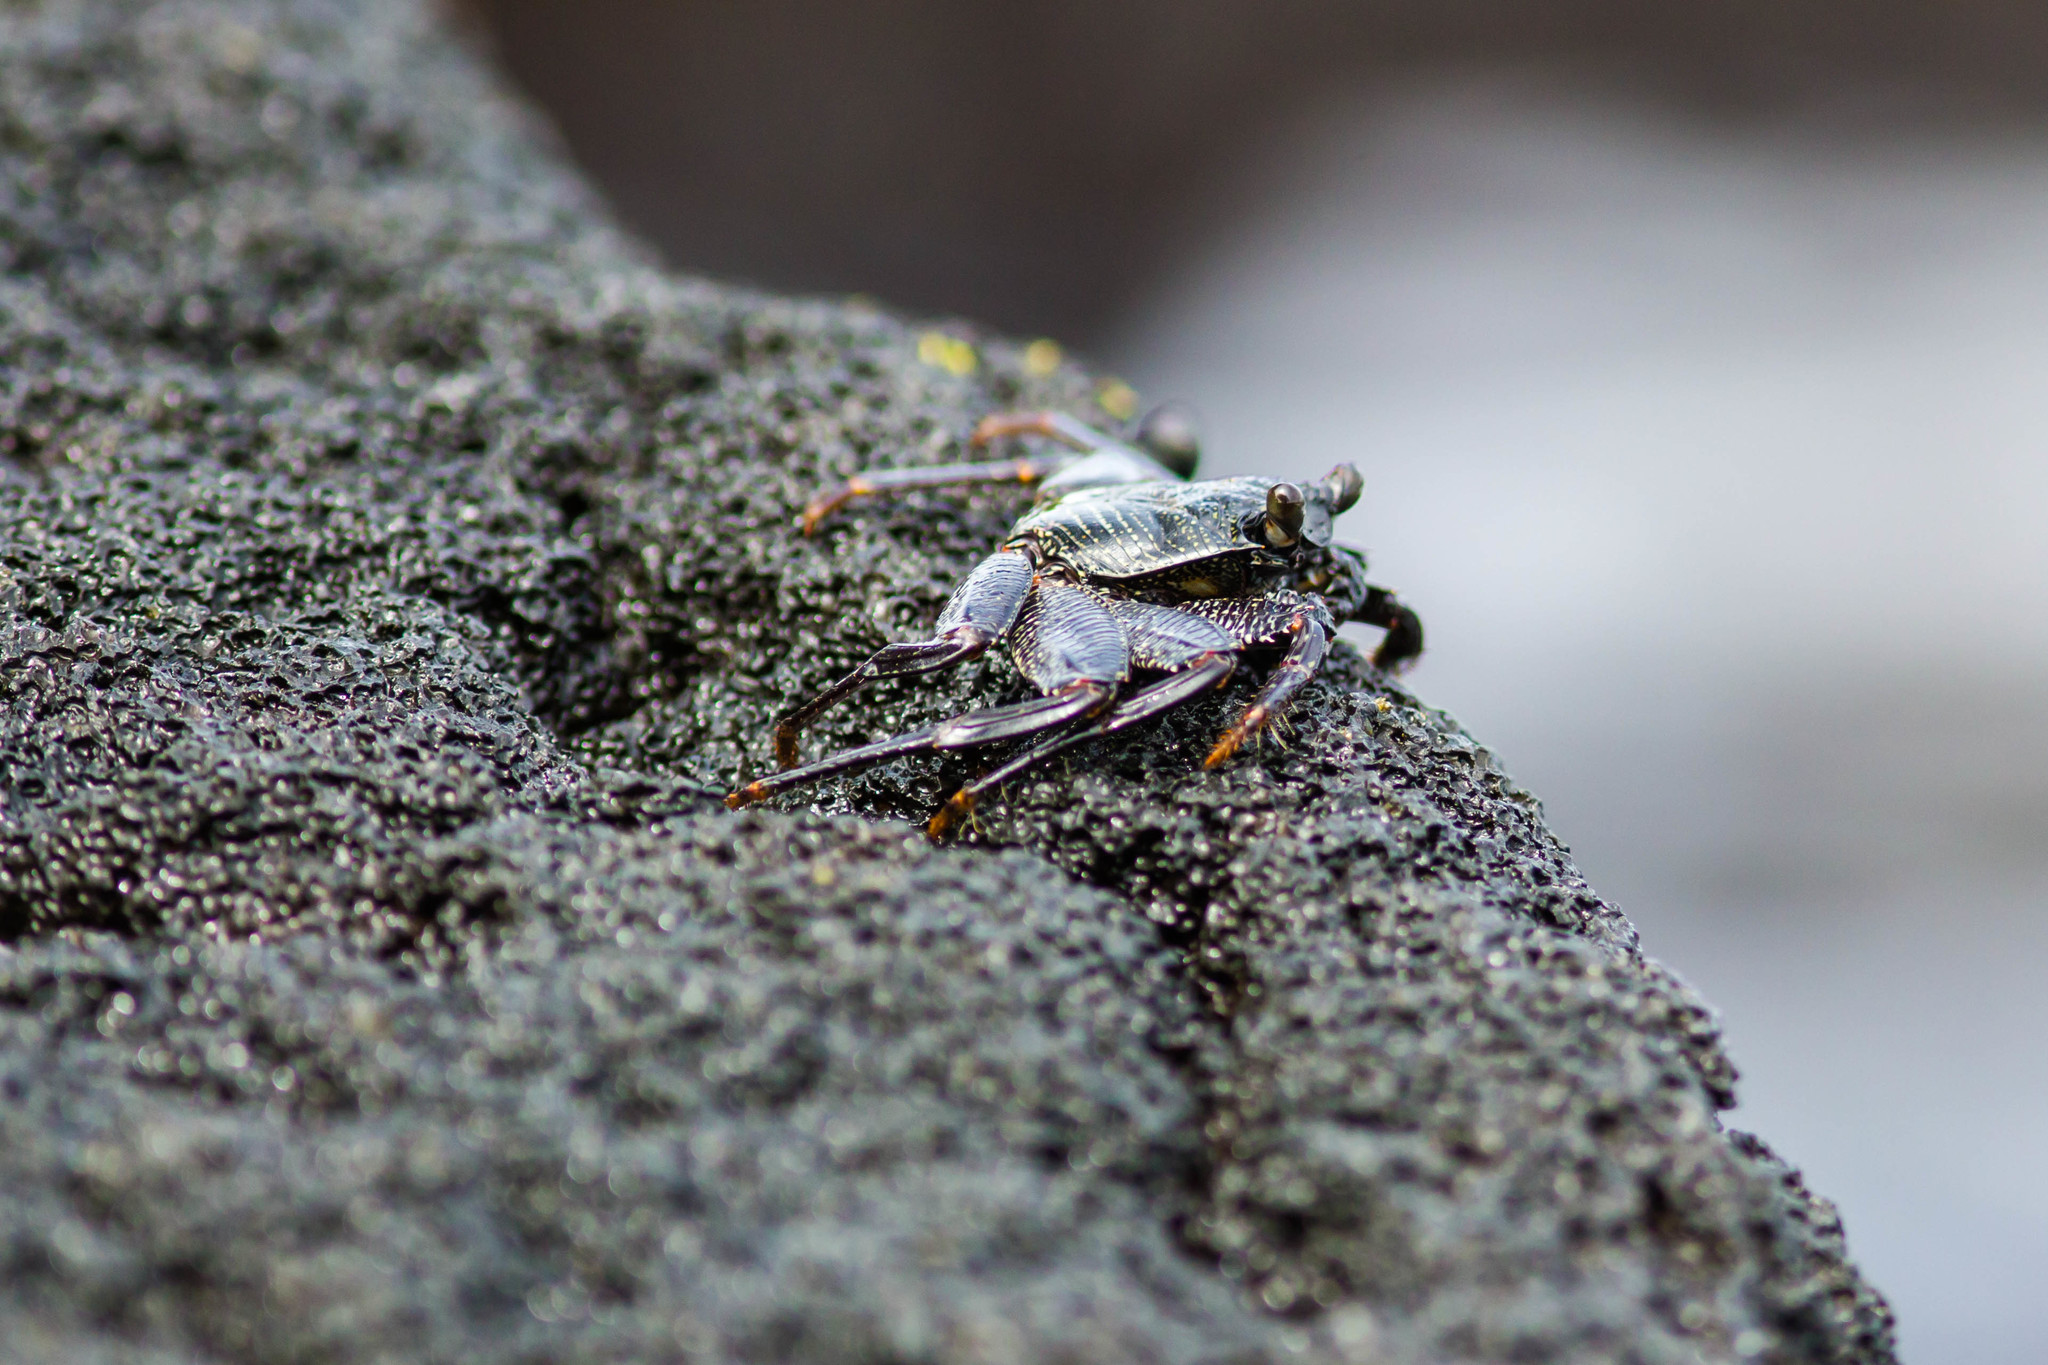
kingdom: Animalia
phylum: Arthropoda
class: Malacostraca
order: Decapoda
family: Grapsidae
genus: Grapsus
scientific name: Grapsus tenuicrustatus
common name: Natal lightfoot crab
